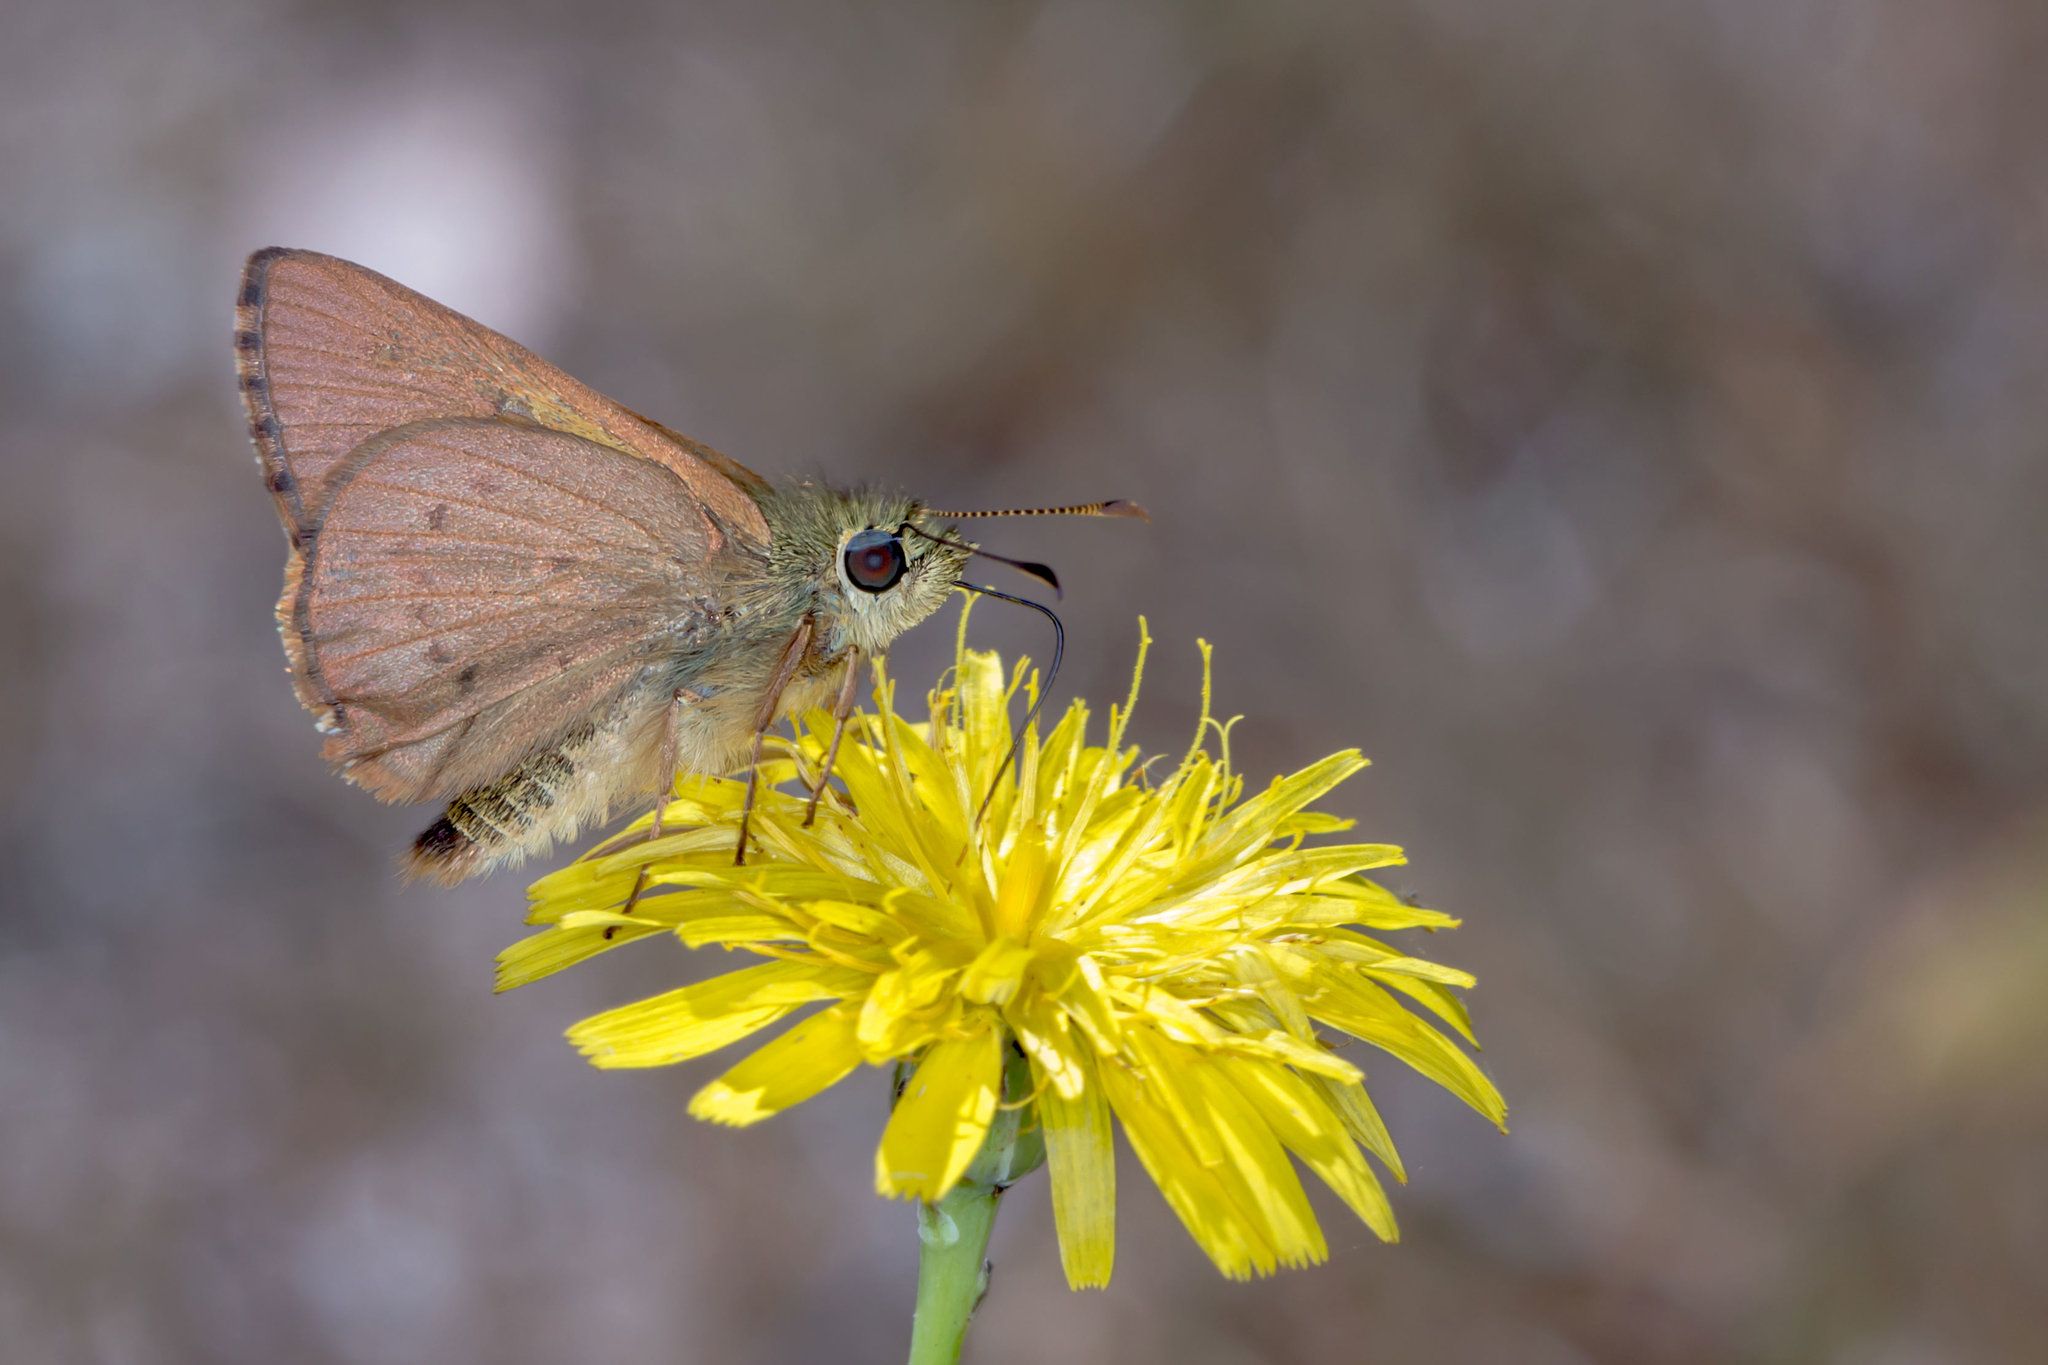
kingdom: Animalia
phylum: Arthropoda
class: Insecta
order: Lepidoptera
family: Hesperiidae
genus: Toxidia
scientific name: Toxidia
